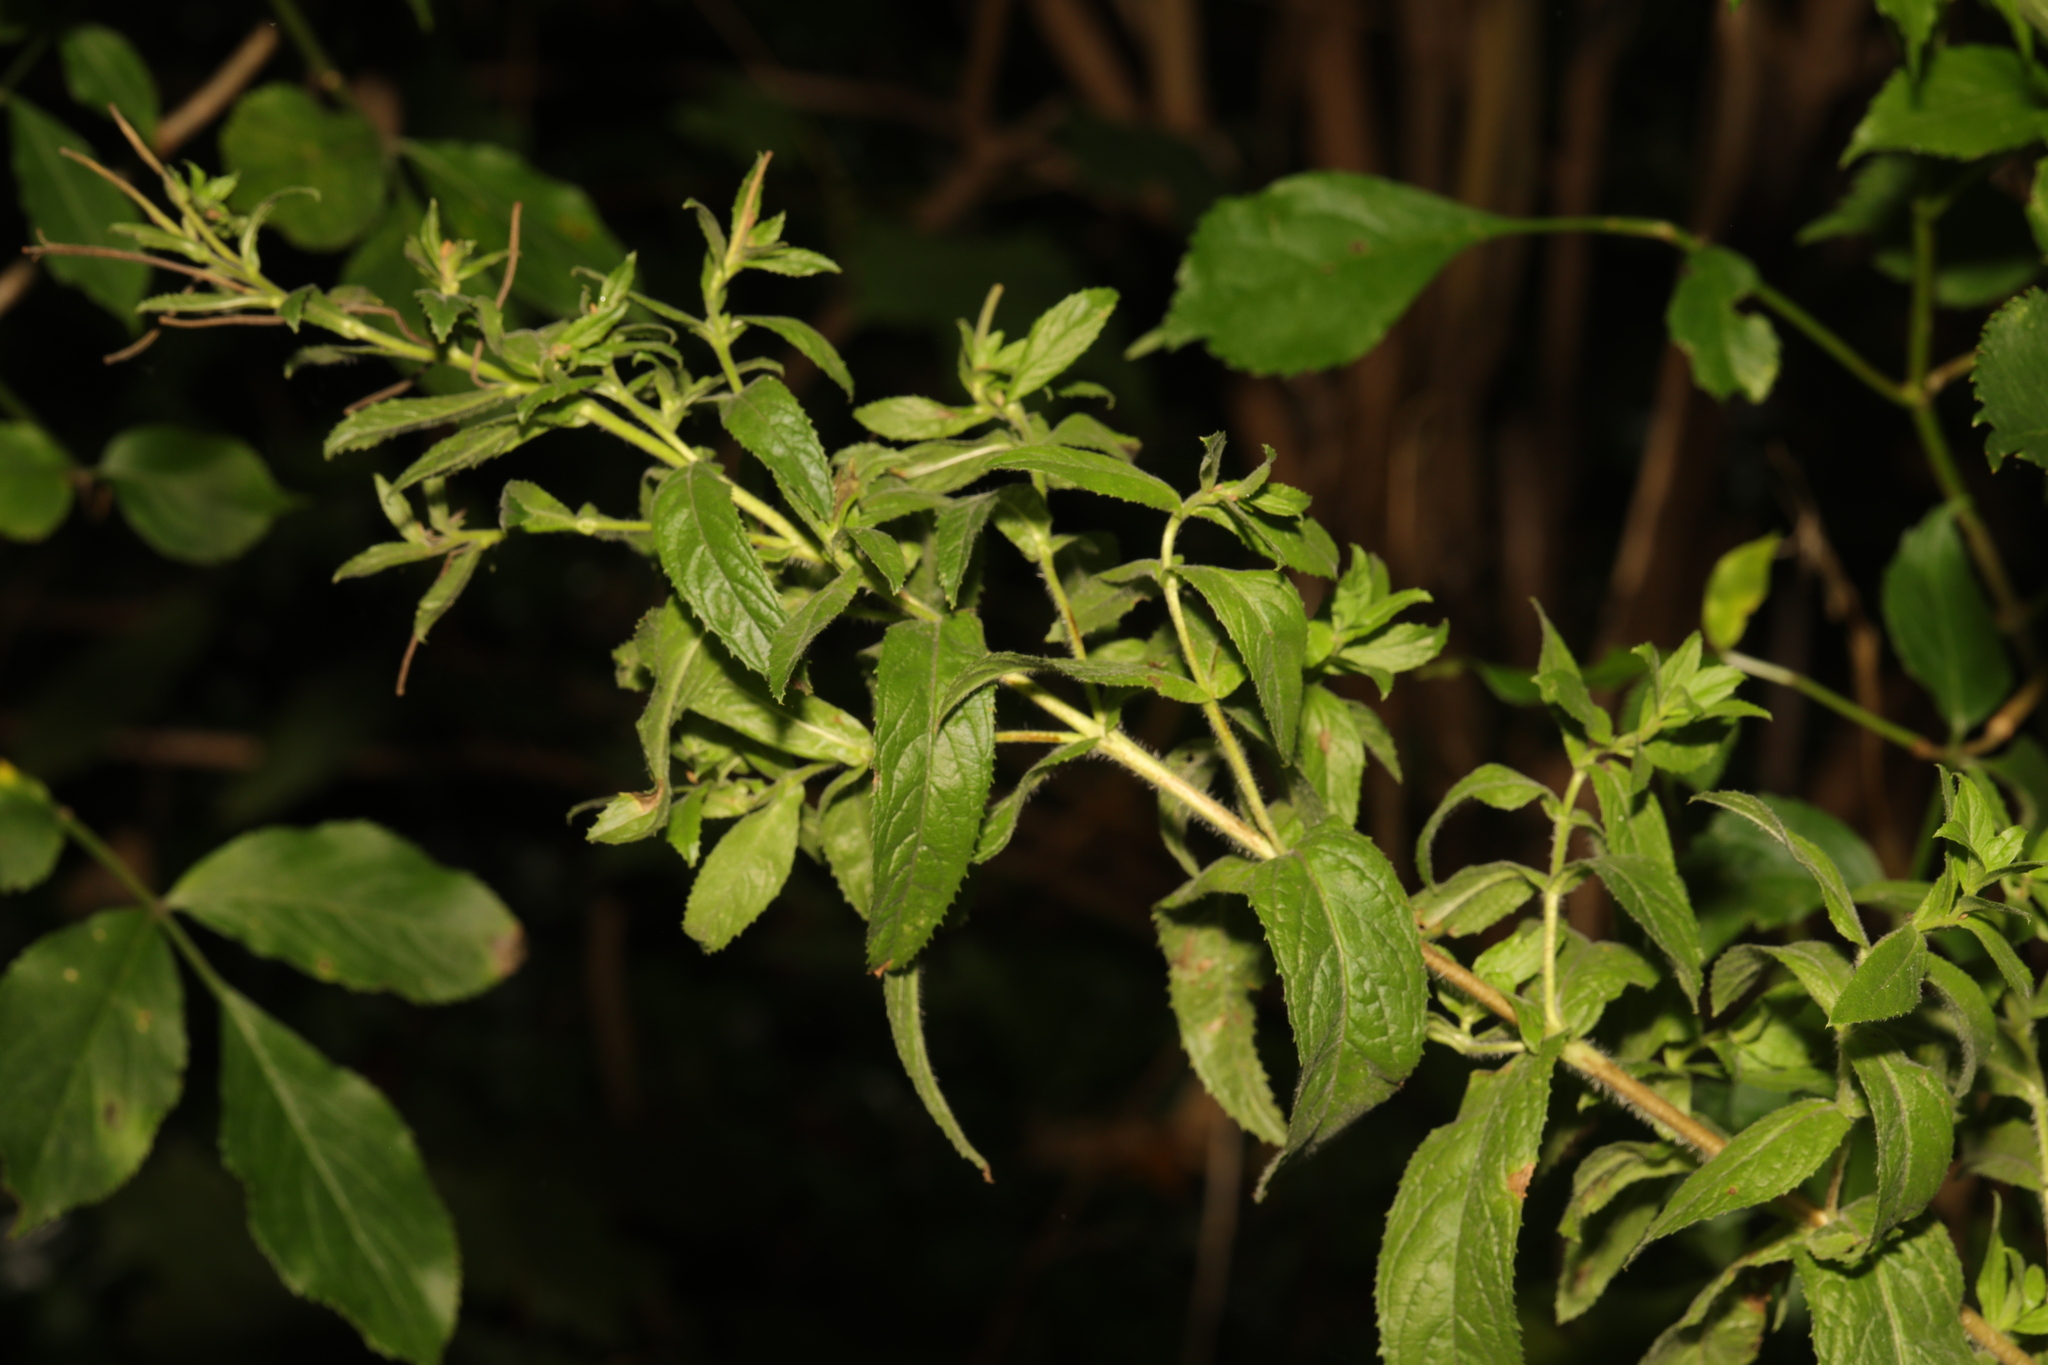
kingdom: Plantae
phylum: Tracheophyta
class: Magnoliopsida
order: Myrtales
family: Onagraceae
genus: Epilobium
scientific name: Epilobium hirsutum
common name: Great willowherb
